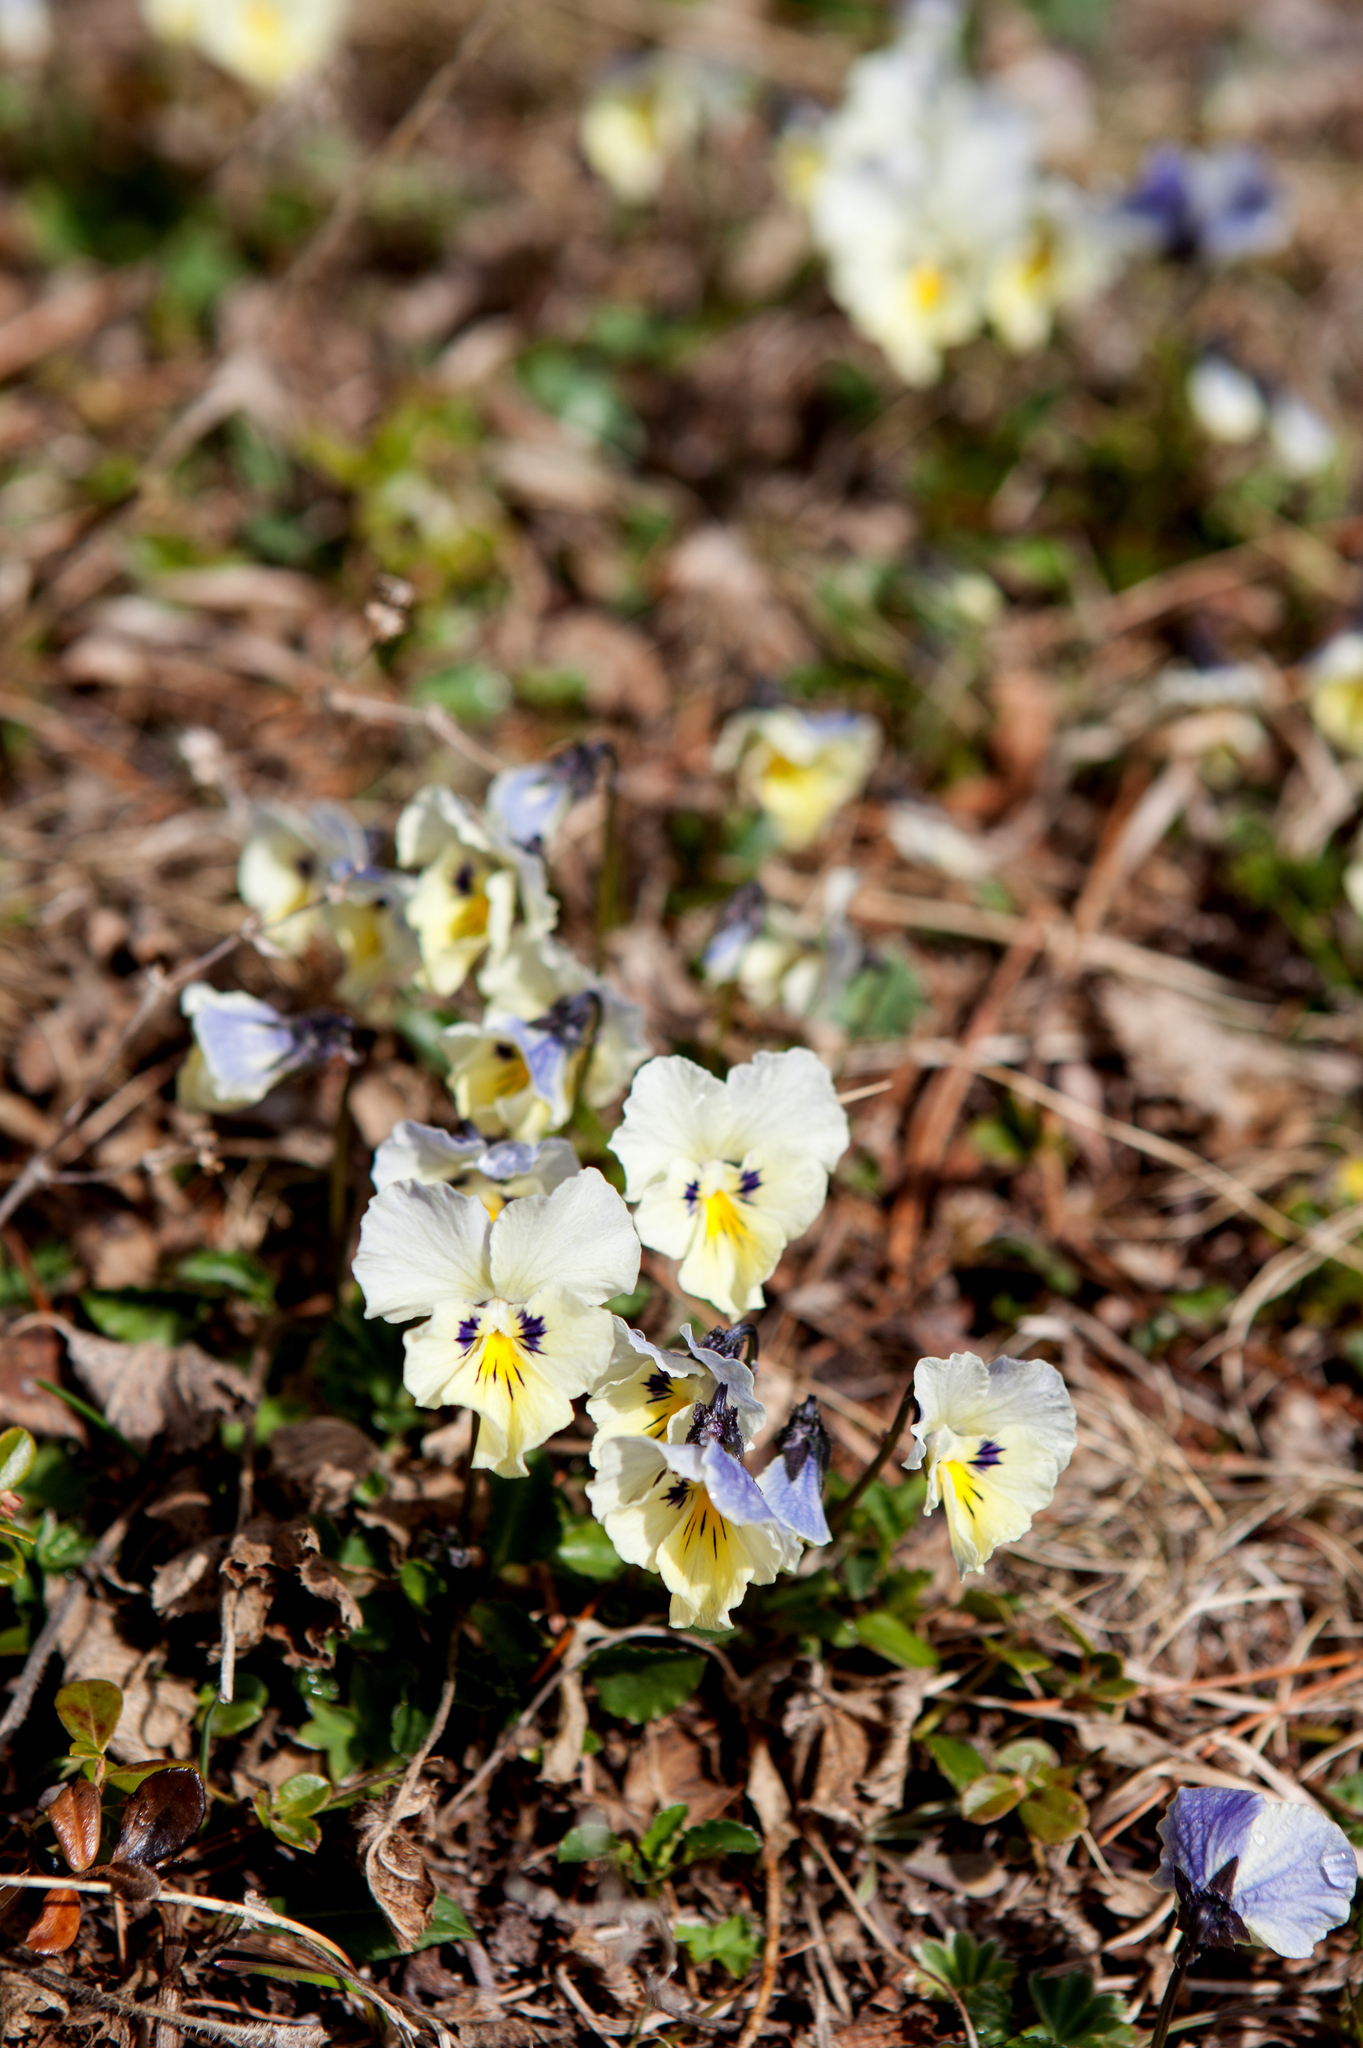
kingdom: Plantae
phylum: Tracheophyta
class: Magnoliopsida
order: Malpighiales
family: Violaceae
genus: Viola
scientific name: Viola altaica
